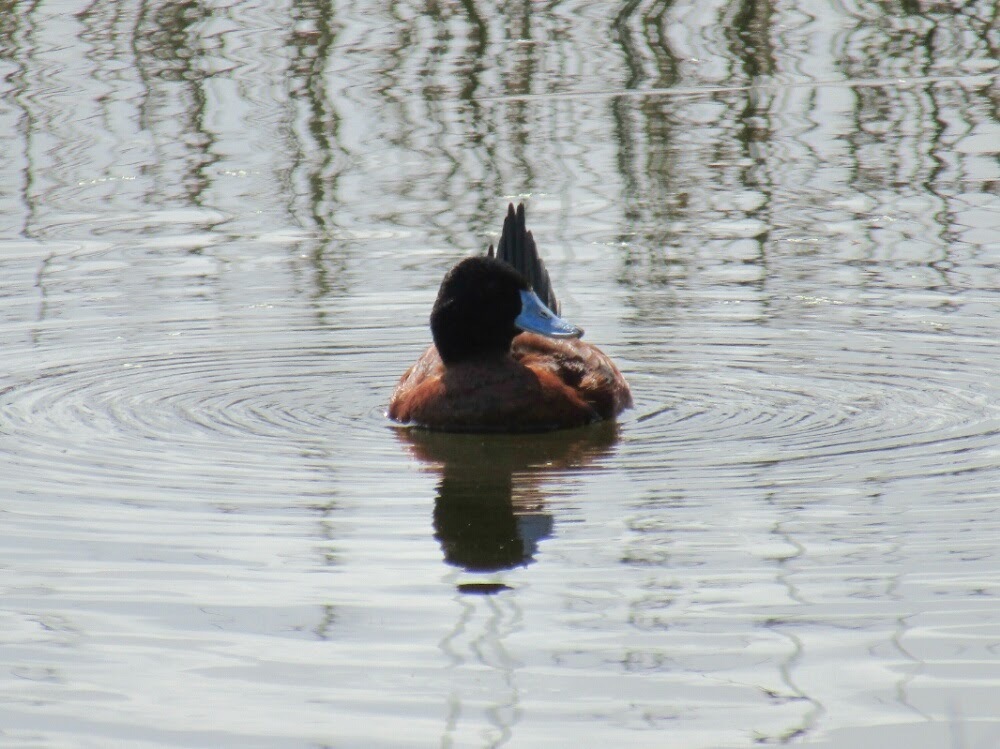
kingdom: Animalia
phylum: Chordata
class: Aves
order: Anseriformes
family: Anatidae
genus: Oxyura
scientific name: Oxyura vittata
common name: Lake duck
